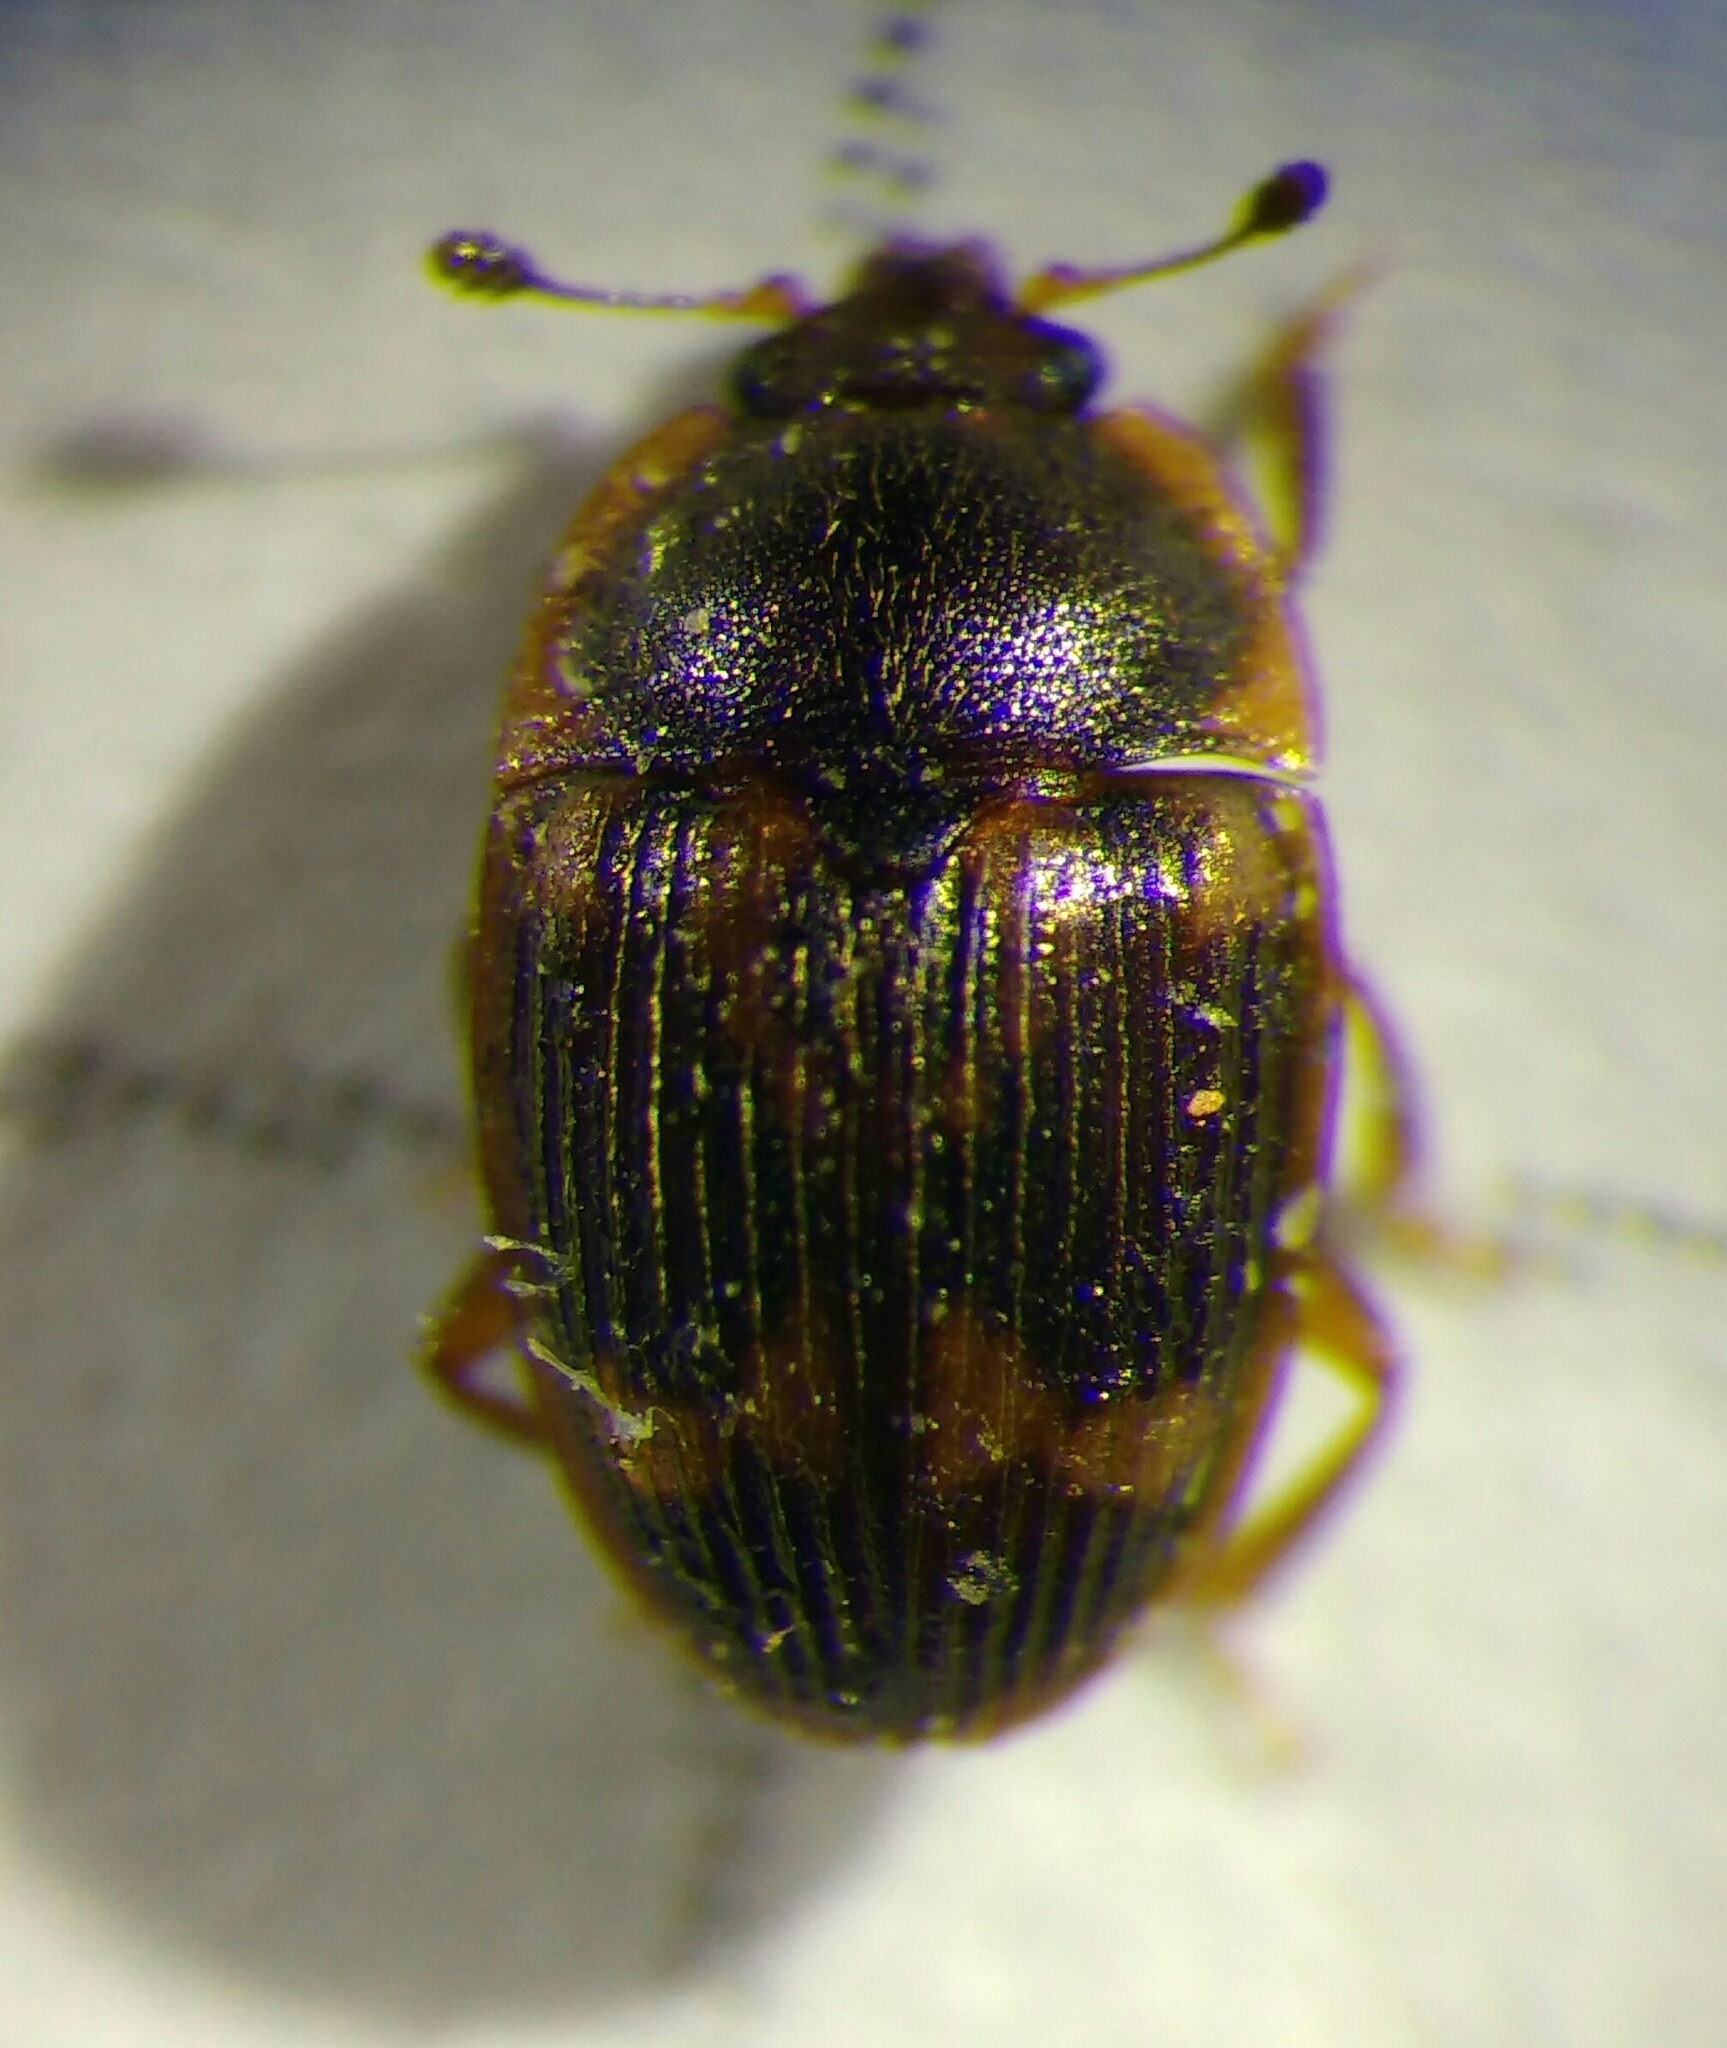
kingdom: Animalia
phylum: Arthropoda
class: Insecta
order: Coleoptera
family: Nitidulidae
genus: Stelidota
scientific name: Stelidota geminata
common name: Strawberry sap beetle
